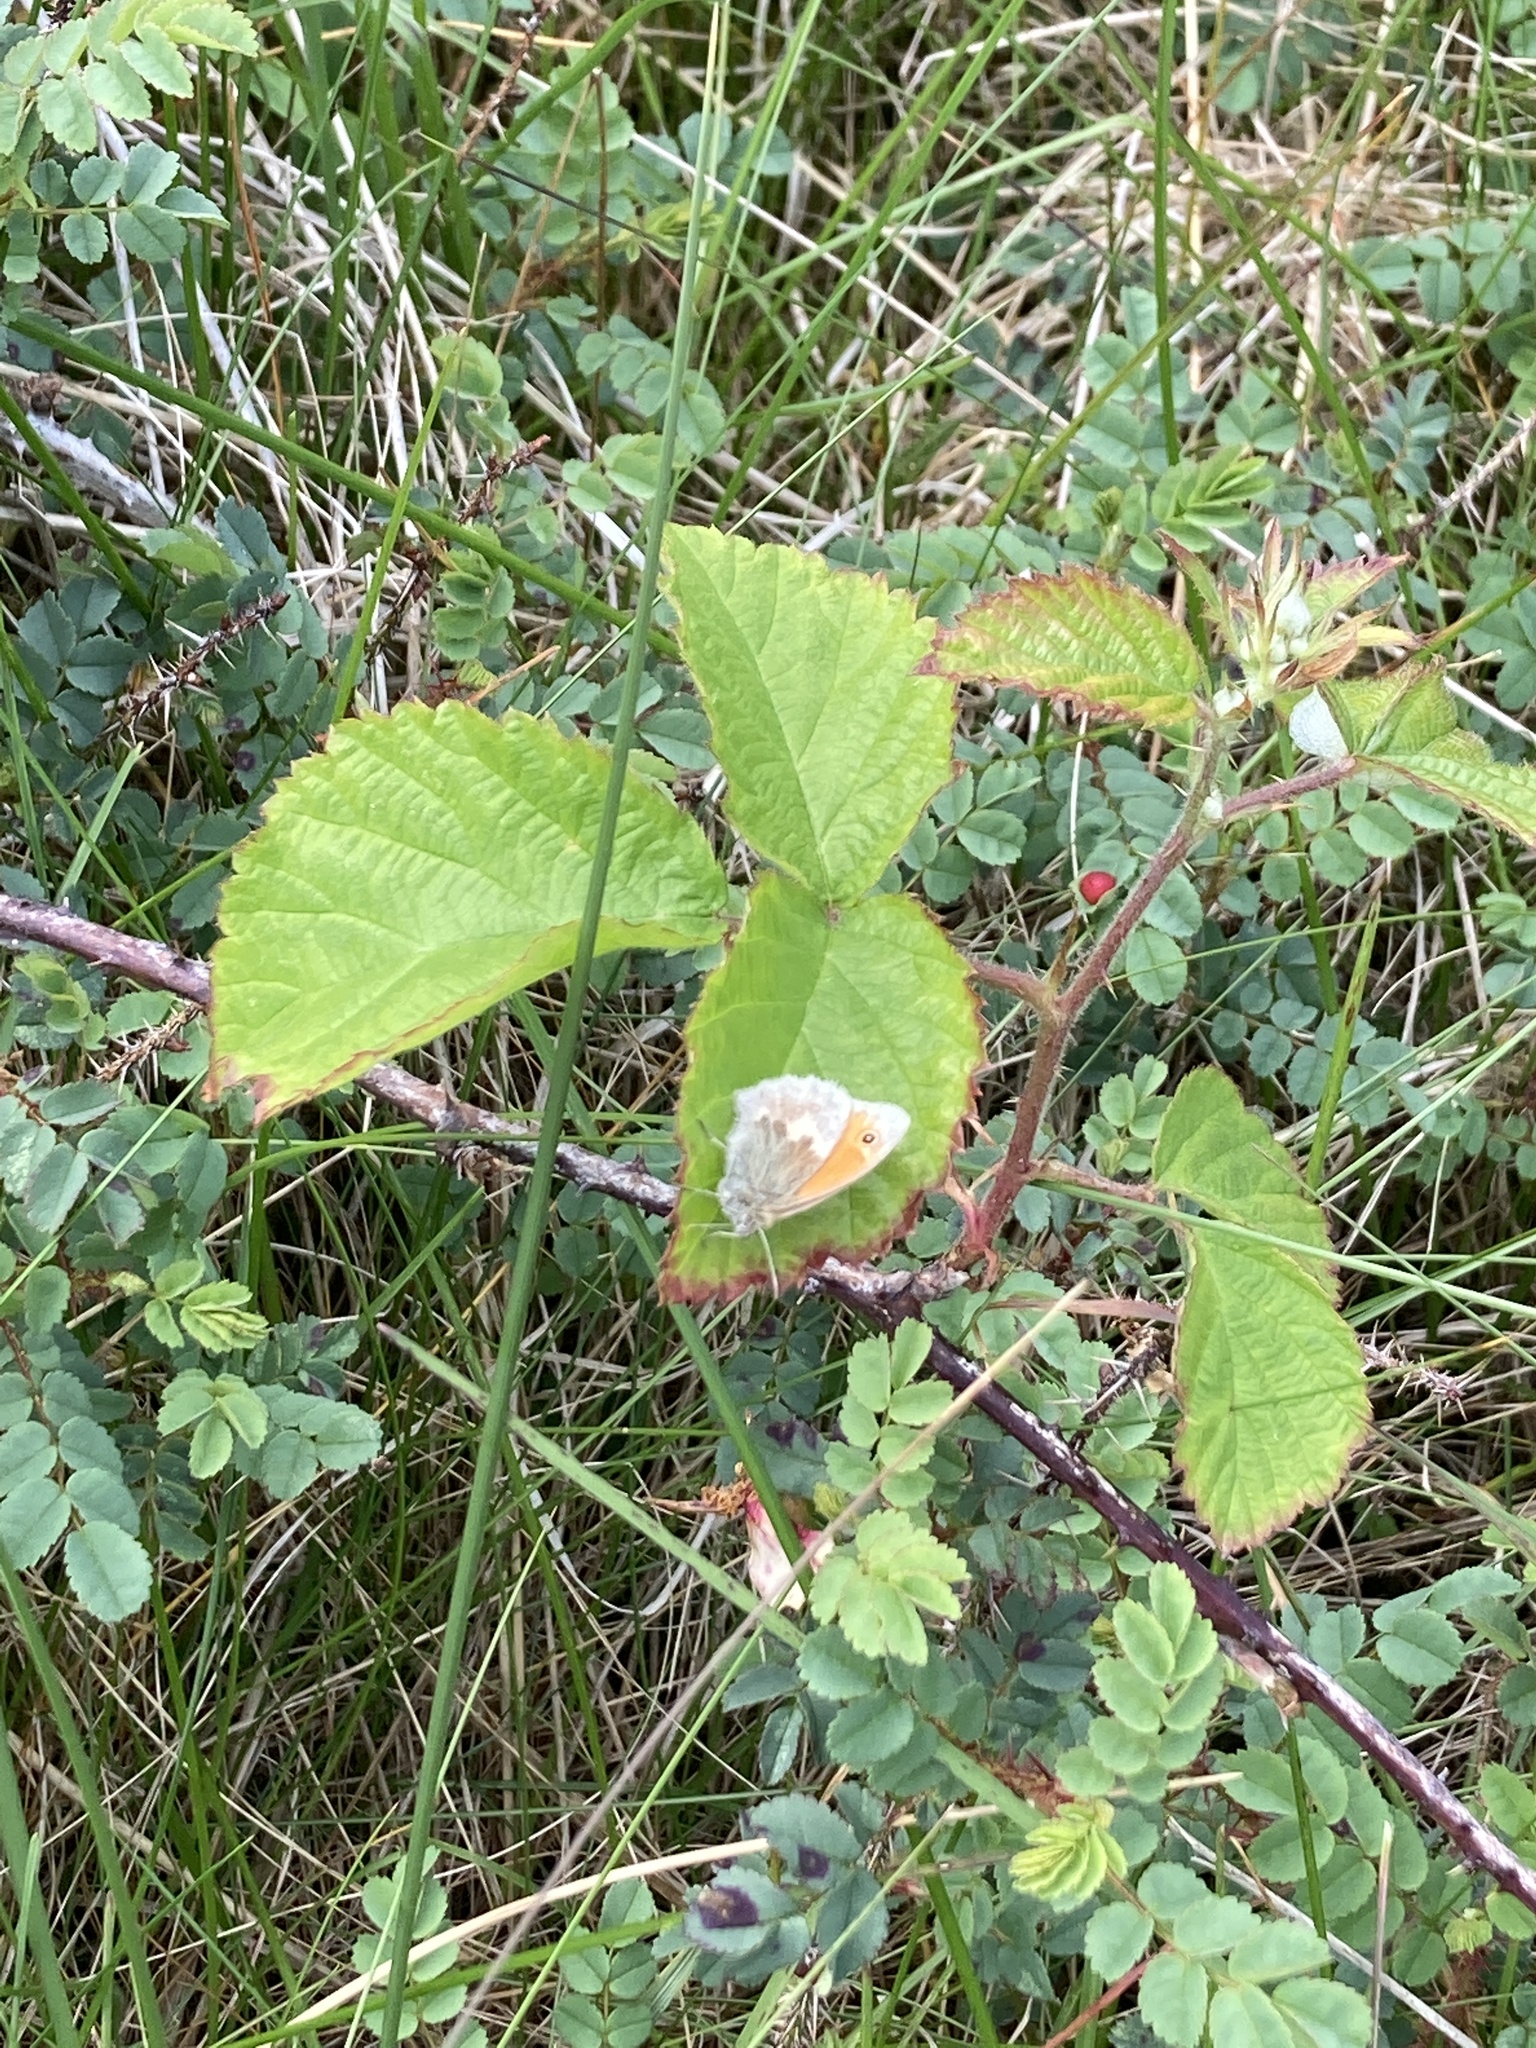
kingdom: Animalia
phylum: Arthropoda
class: Insecta
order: Lepidoptera
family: Nymphalidae
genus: Coenonympha
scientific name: Coenonympha pamphilus
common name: Small heath
